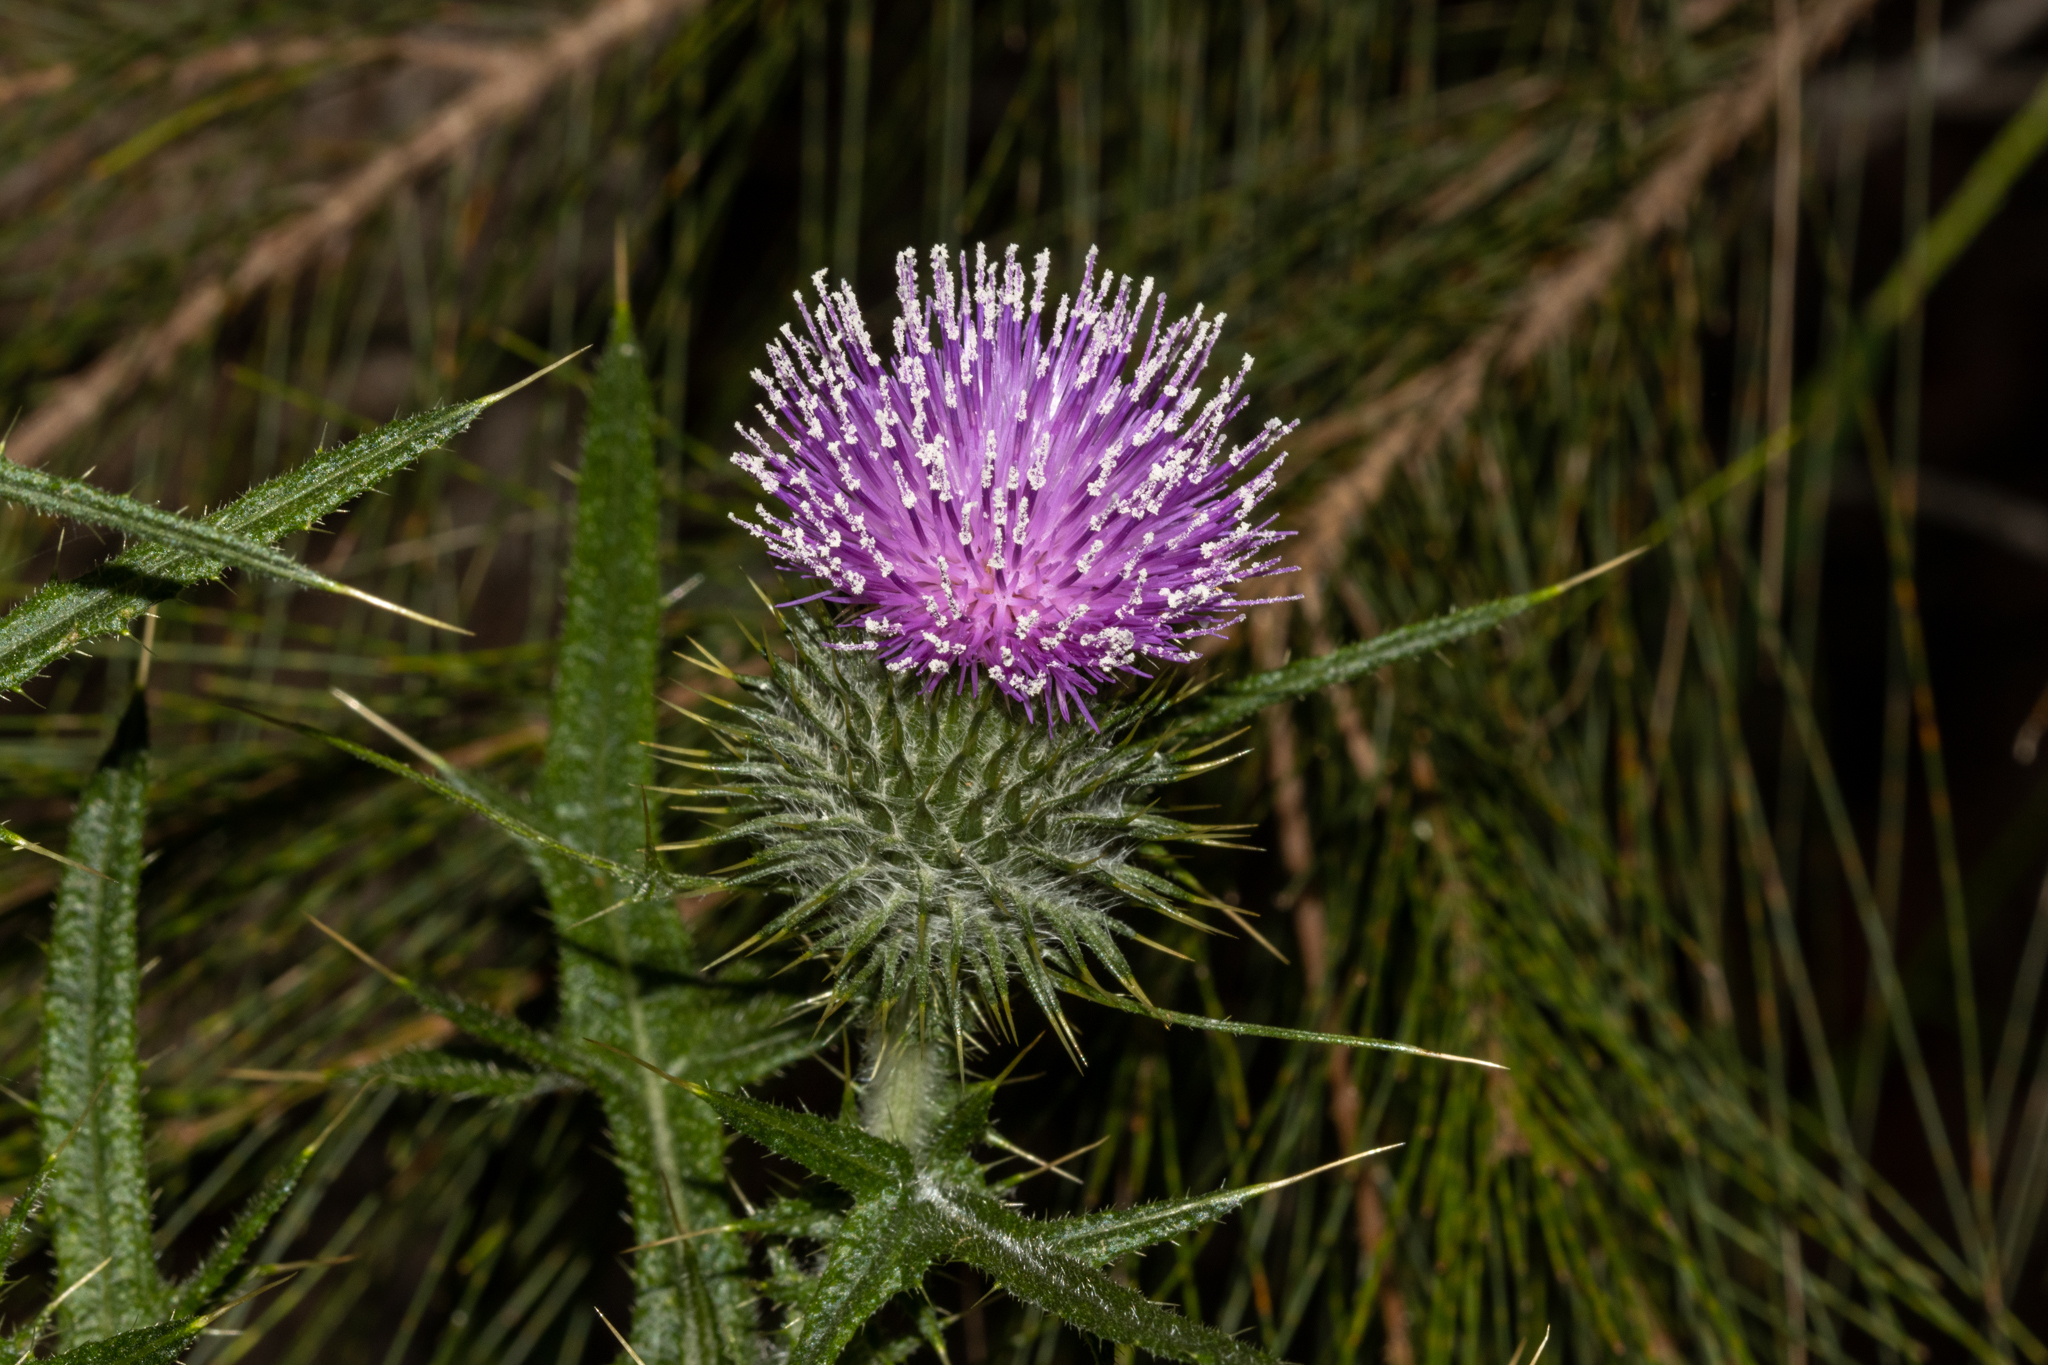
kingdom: Plantae
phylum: Tracheophyta
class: Magnoliopsida
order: Asterales
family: Asteraceae
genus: Cirsium
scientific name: Cirsium vulgare
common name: Bull thistle
